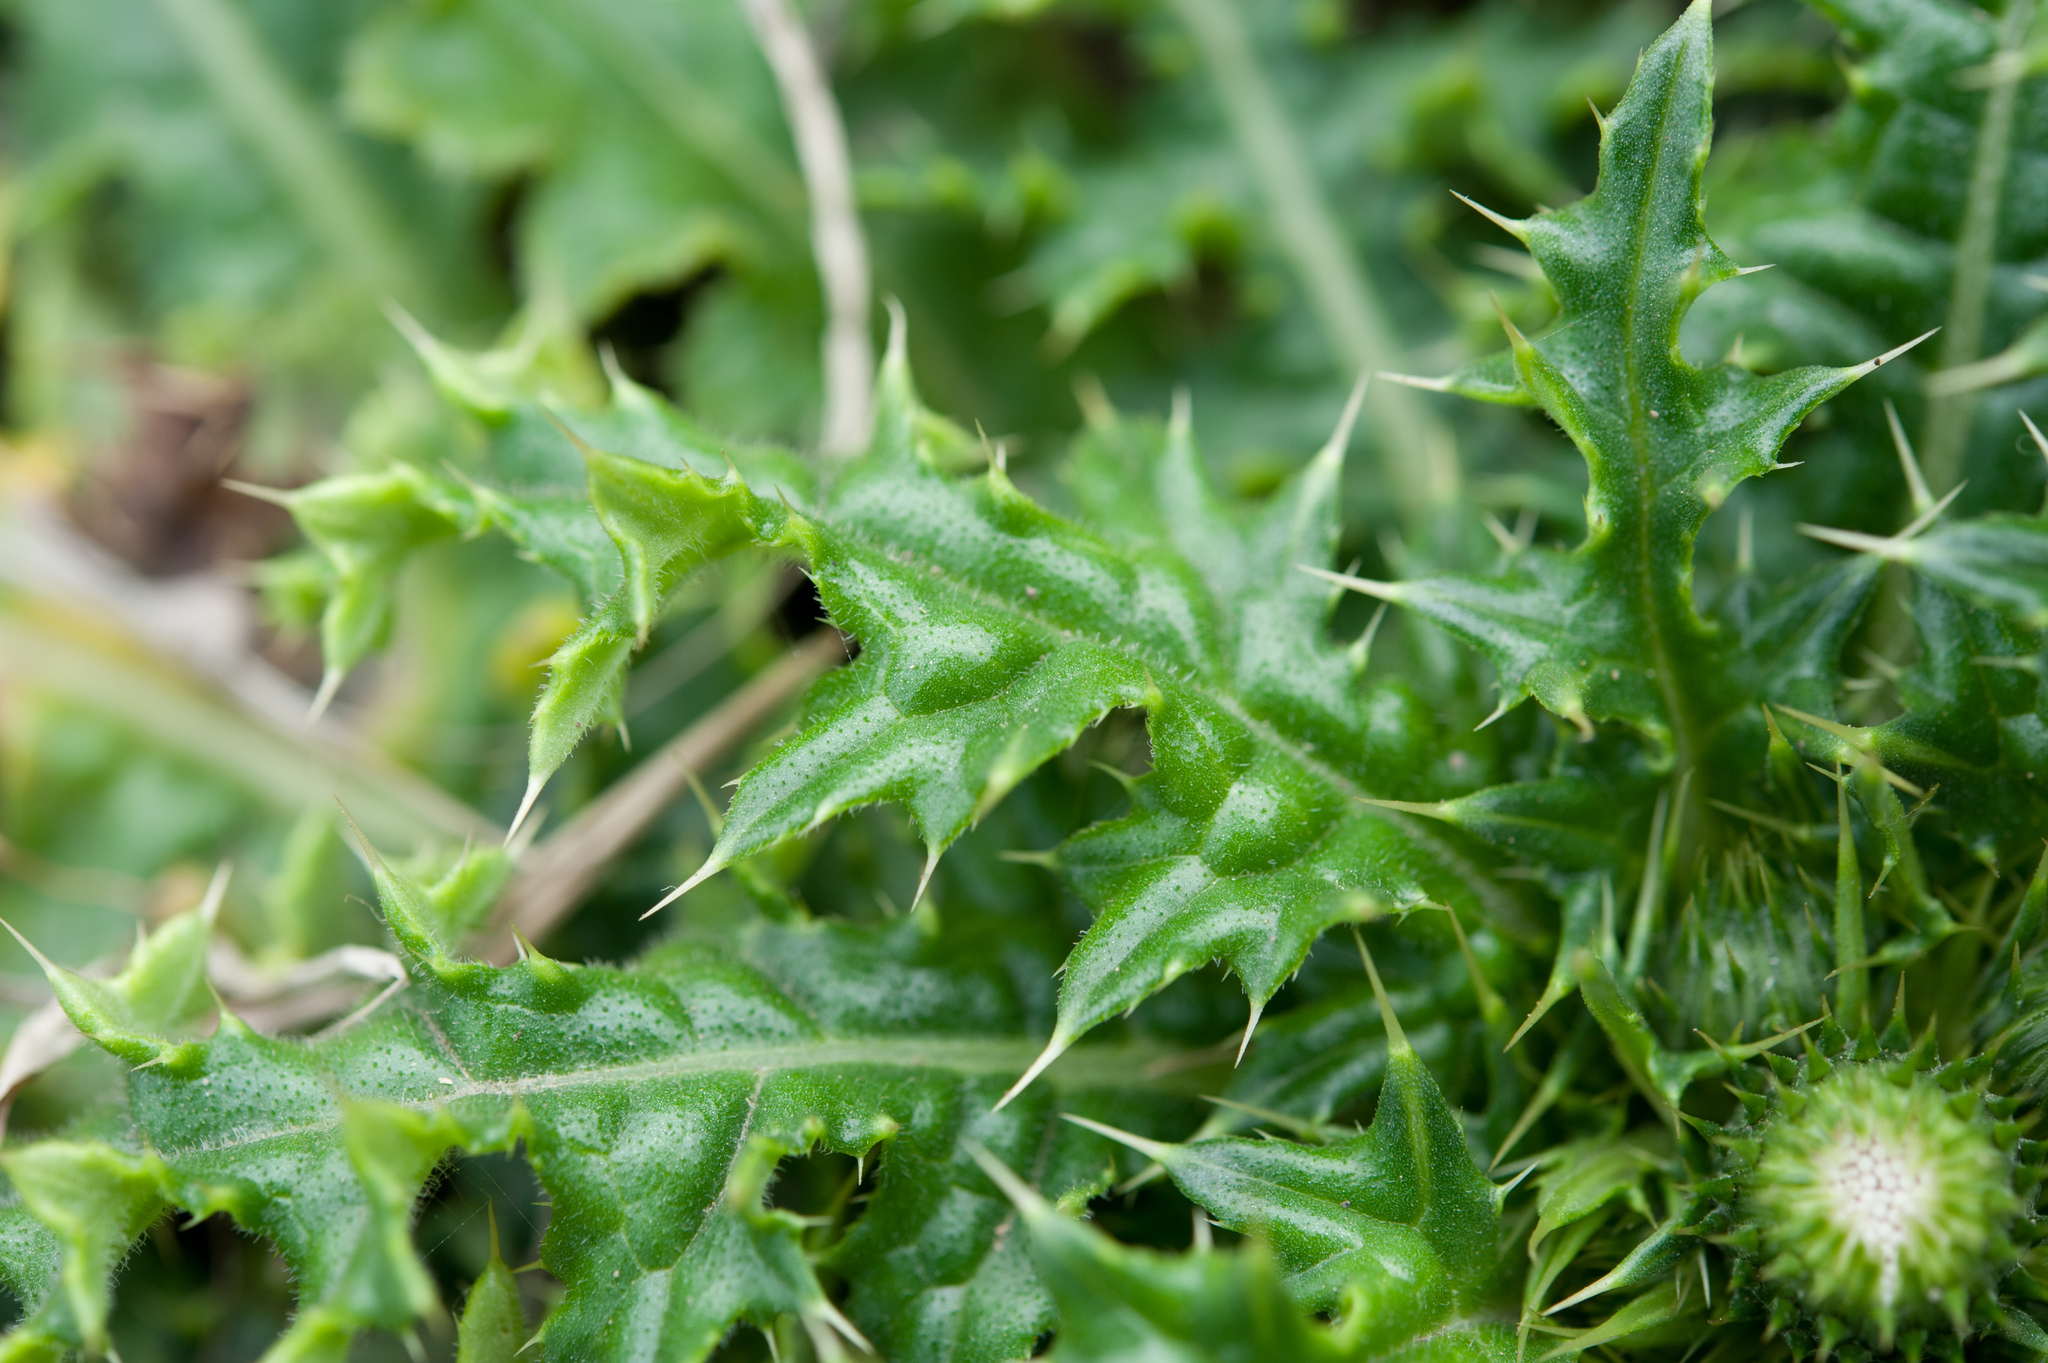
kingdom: Plantae
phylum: Tracheophyta
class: Magnoliopsida
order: Asterales
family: Asteraceae
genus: Cirsium
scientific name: Cirsium brevicaule
